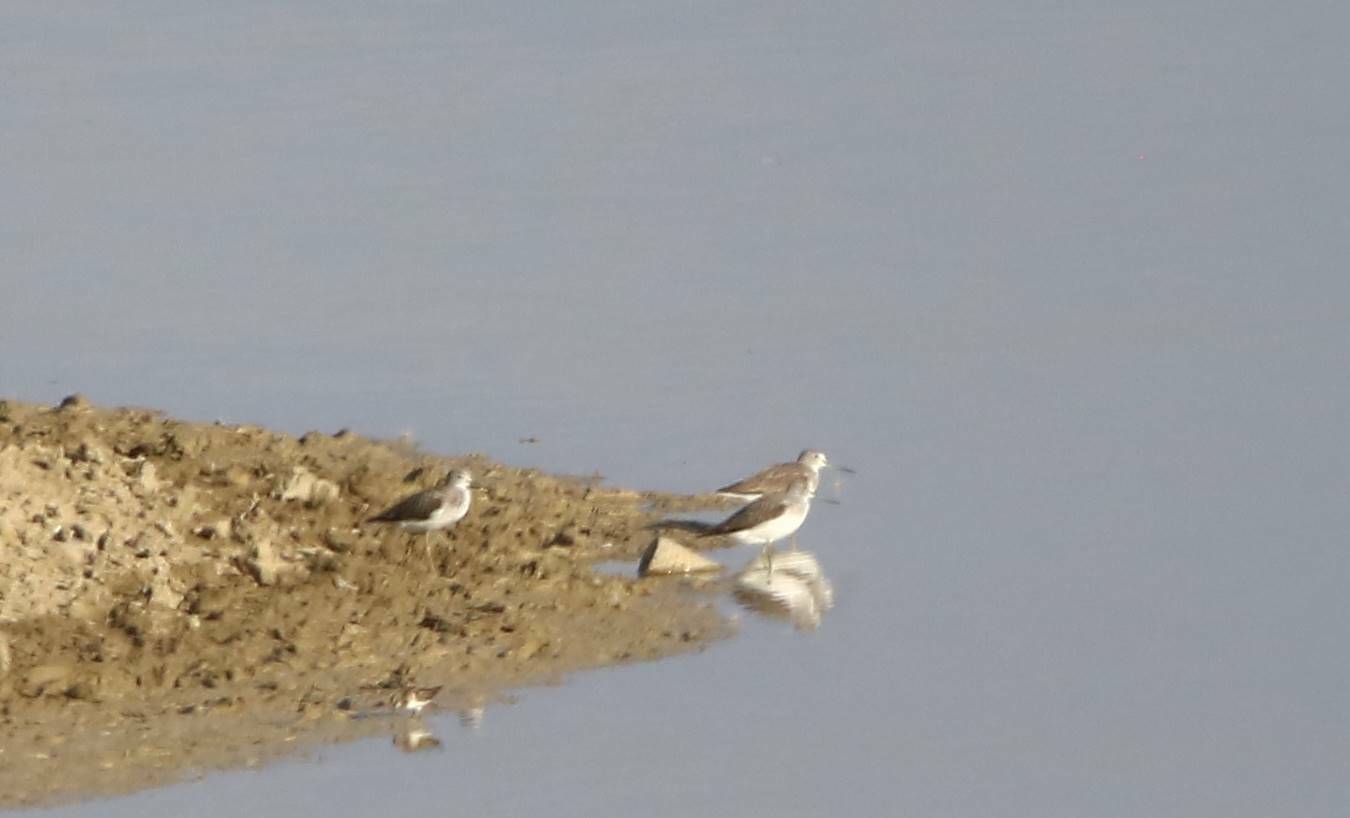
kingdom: Animalia
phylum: Chordata
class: Aves
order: Charadriiformes
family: Scolopacidae
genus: Tringa
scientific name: Tringa nebularia
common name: Common greenshank
